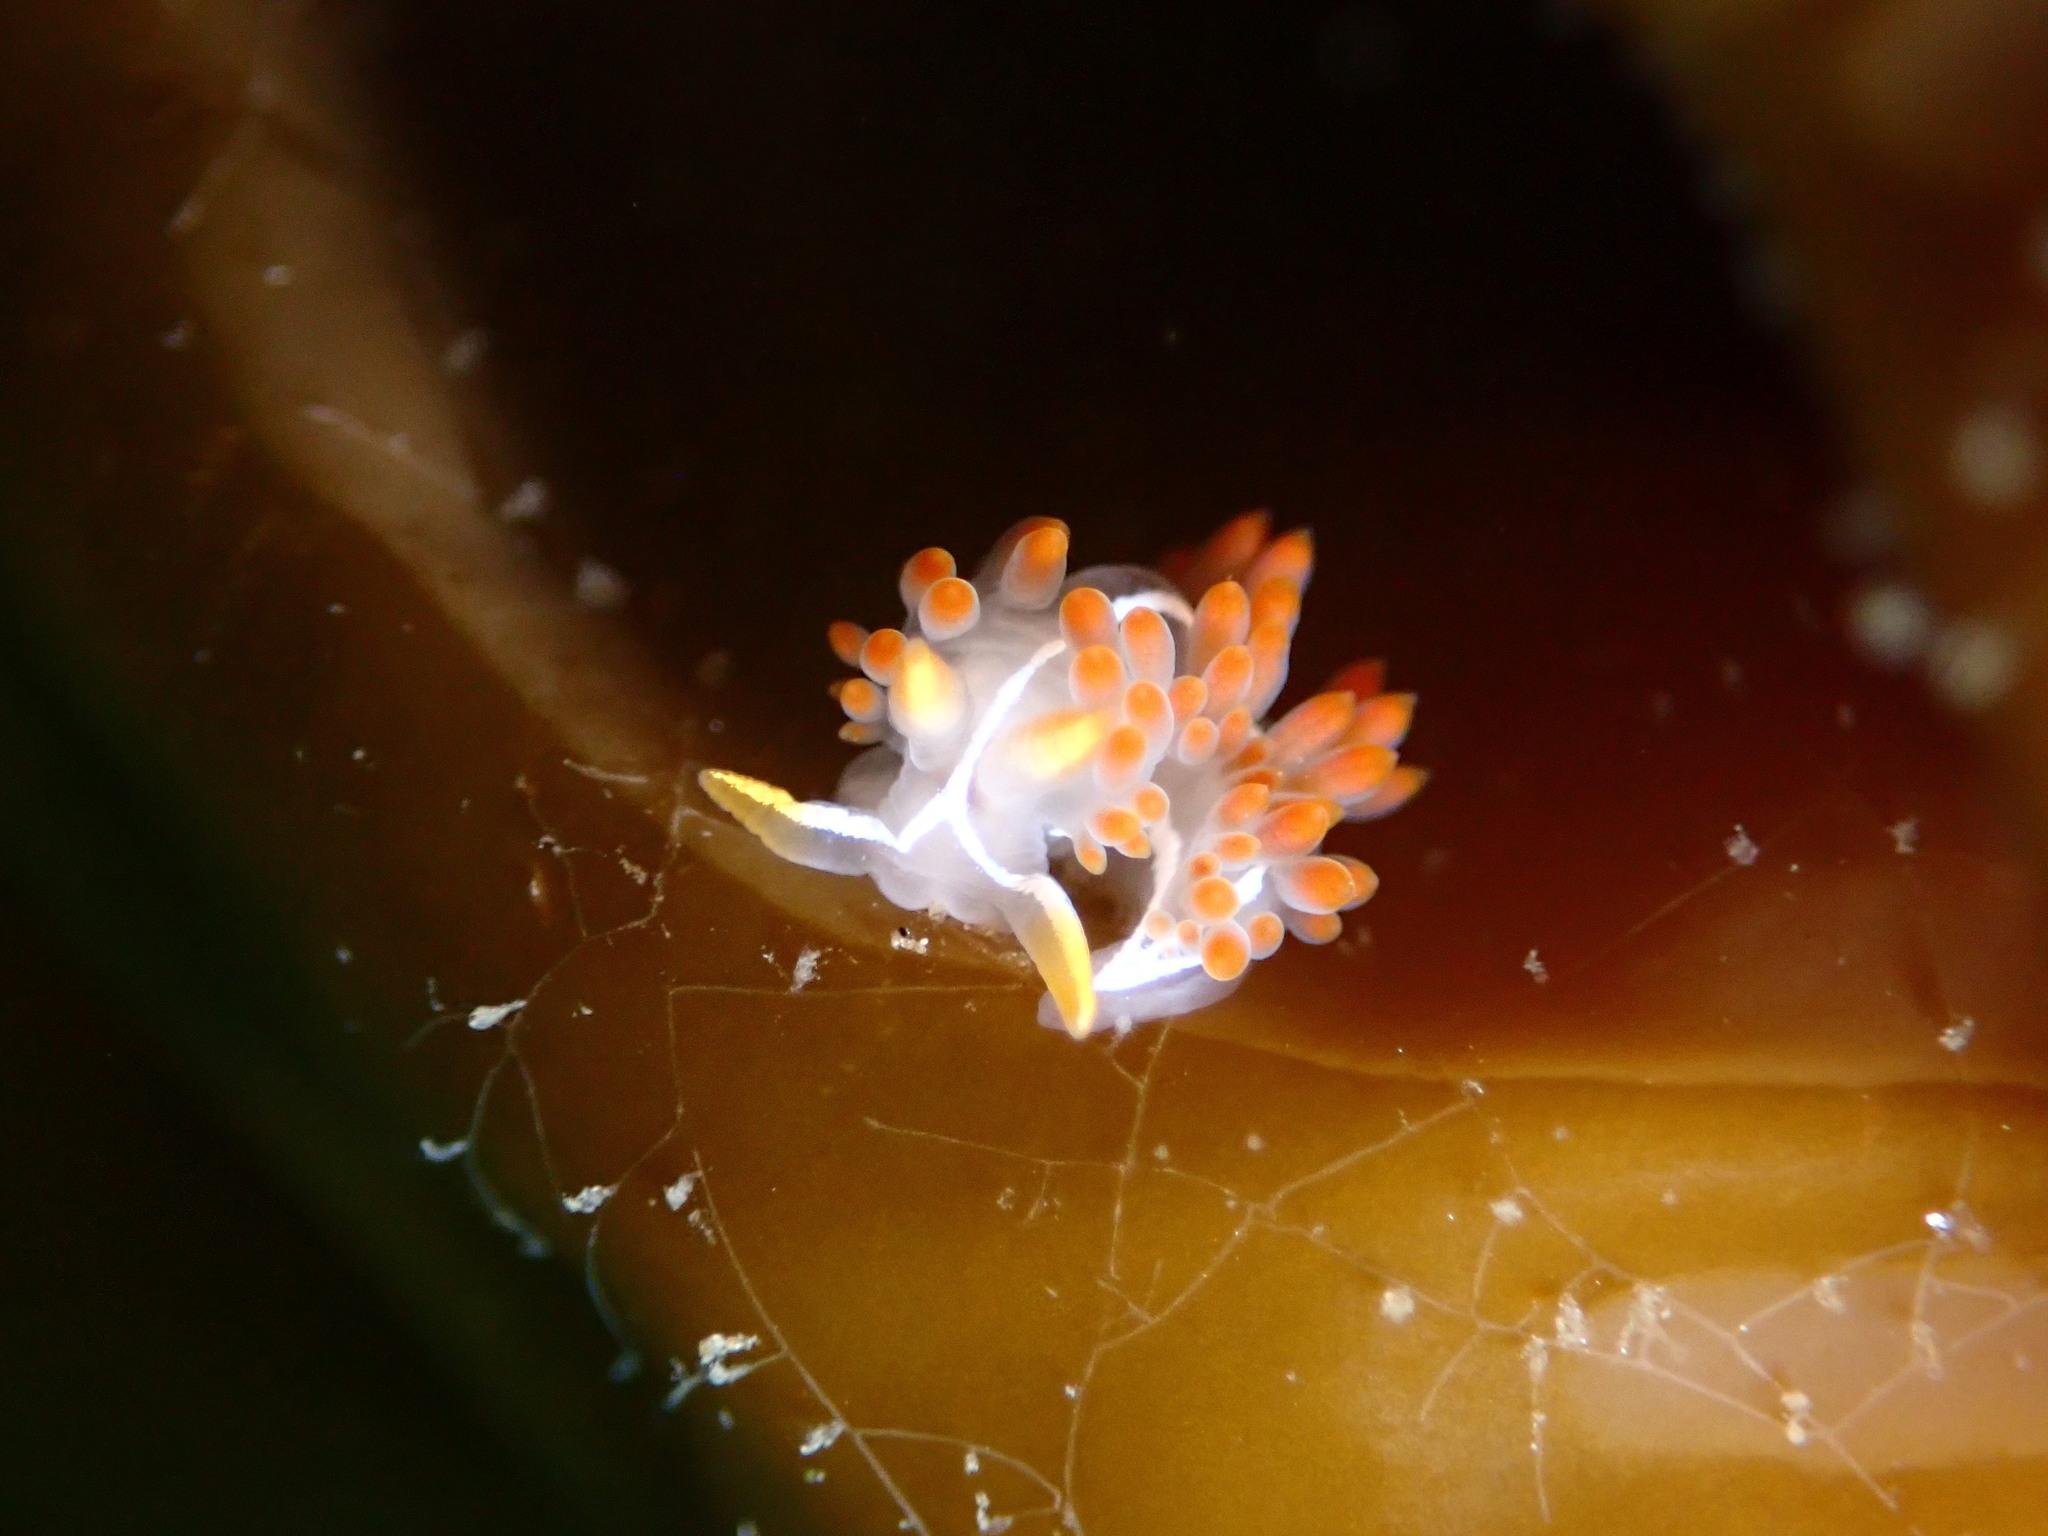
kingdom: Animalia
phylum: Mollusca
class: Gastropoda
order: Nudibranchia
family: Coryphellidae
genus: Coryphella
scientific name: Coryphella trilineata
